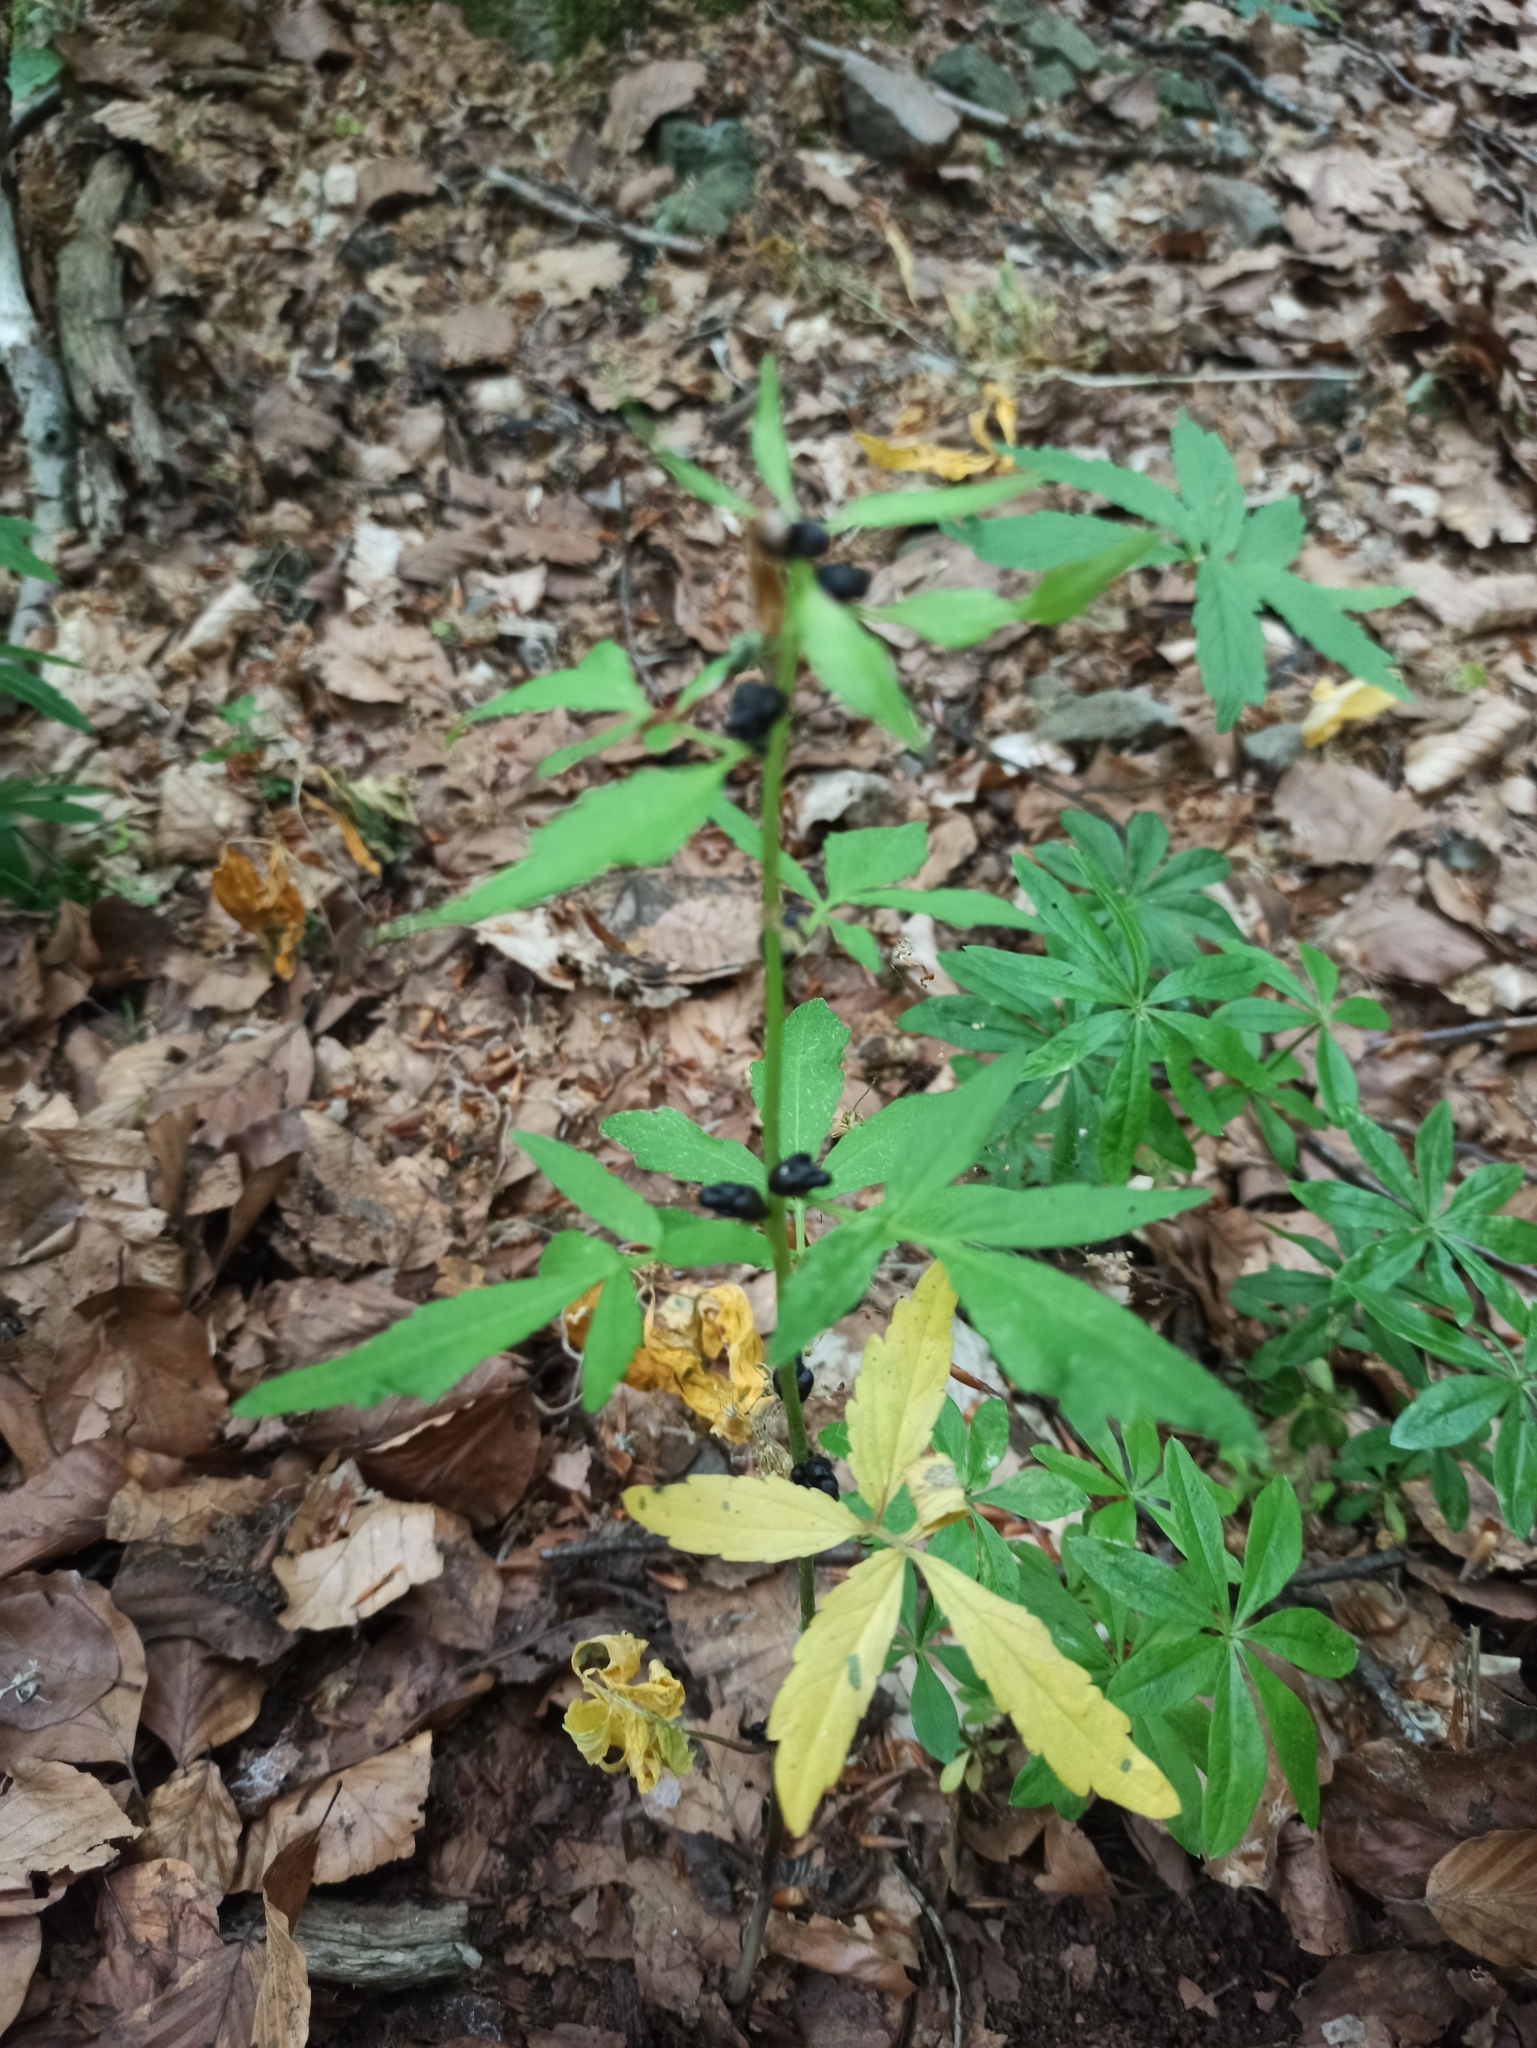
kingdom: Plantae
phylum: Tracheophyta
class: Magnoliopsida
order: Brassicales
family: Brassicaceae
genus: Cardamine
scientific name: Cardamine bulbifera
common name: Coralroot bittercress
